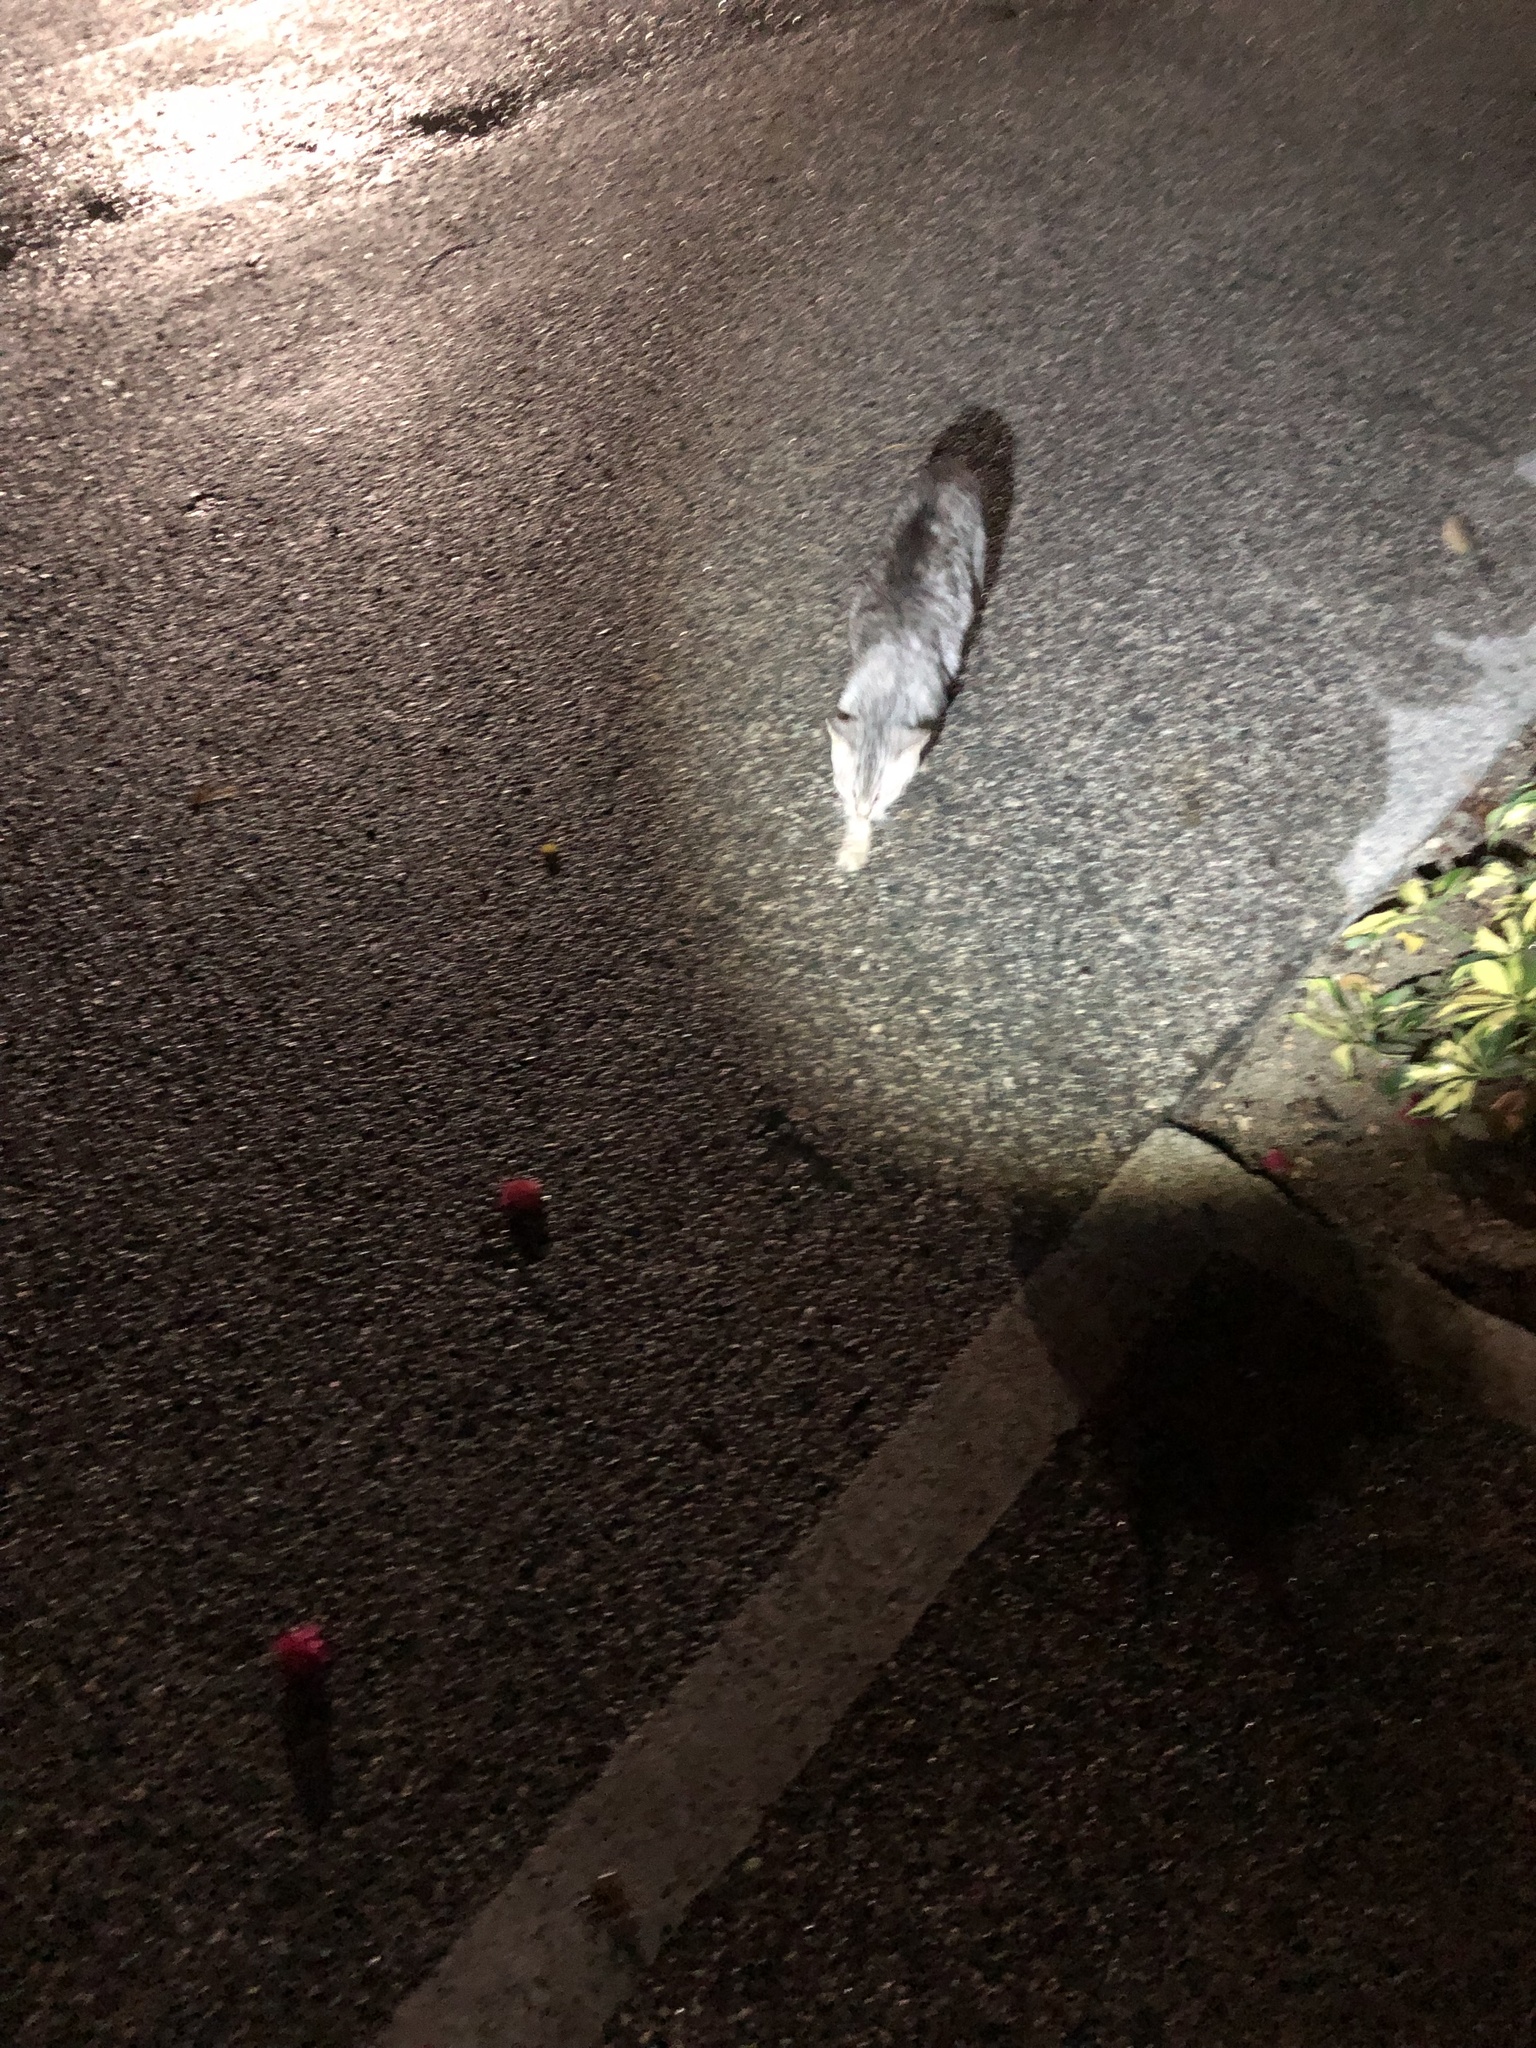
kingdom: Animalia
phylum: Chordata
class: Mammalia
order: Carnivora
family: Felidae
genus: Felis
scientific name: Felis catus
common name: Domestic cat
